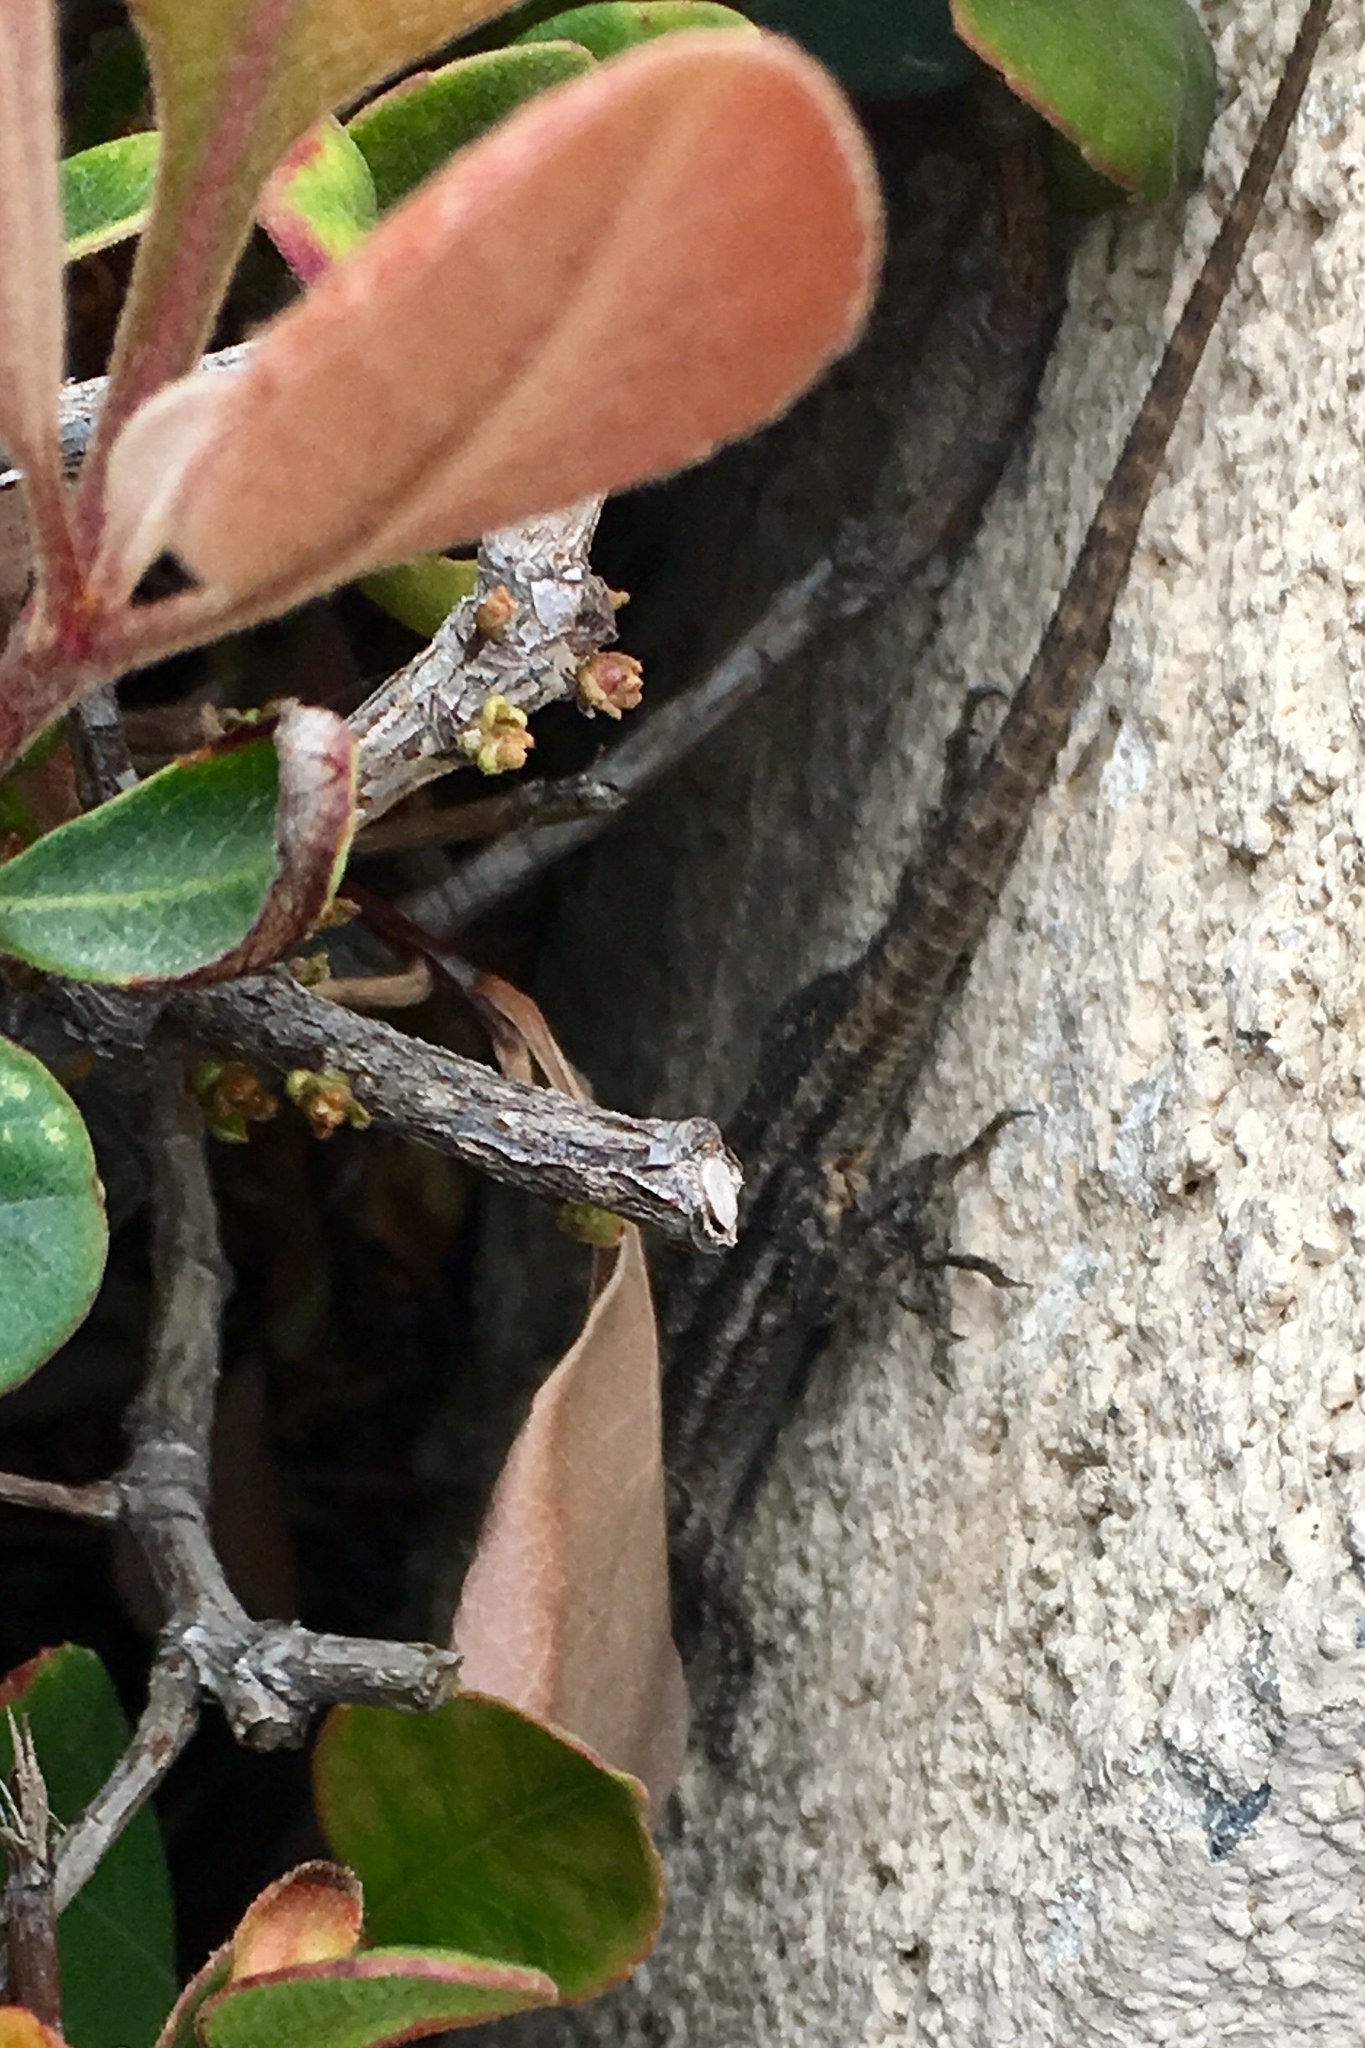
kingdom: Animalia
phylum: Chordata
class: Squamata
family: Phrynosomatidae
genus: Sceloporus
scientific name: Sceloporus occidentalis
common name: Western fence lizard
